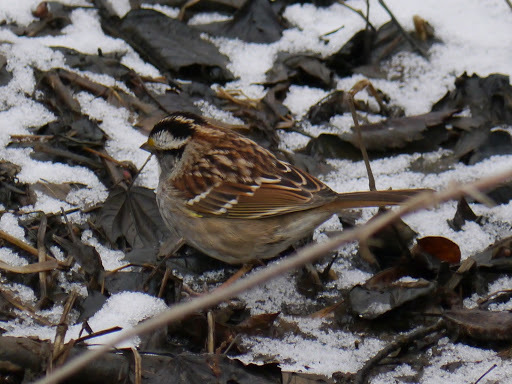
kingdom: Animalia
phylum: Chordata
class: Aves
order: Passeriformes
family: Passerellidae
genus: Zonotrichia
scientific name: Zonotrichia albicollis
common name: White-throated sparrow
